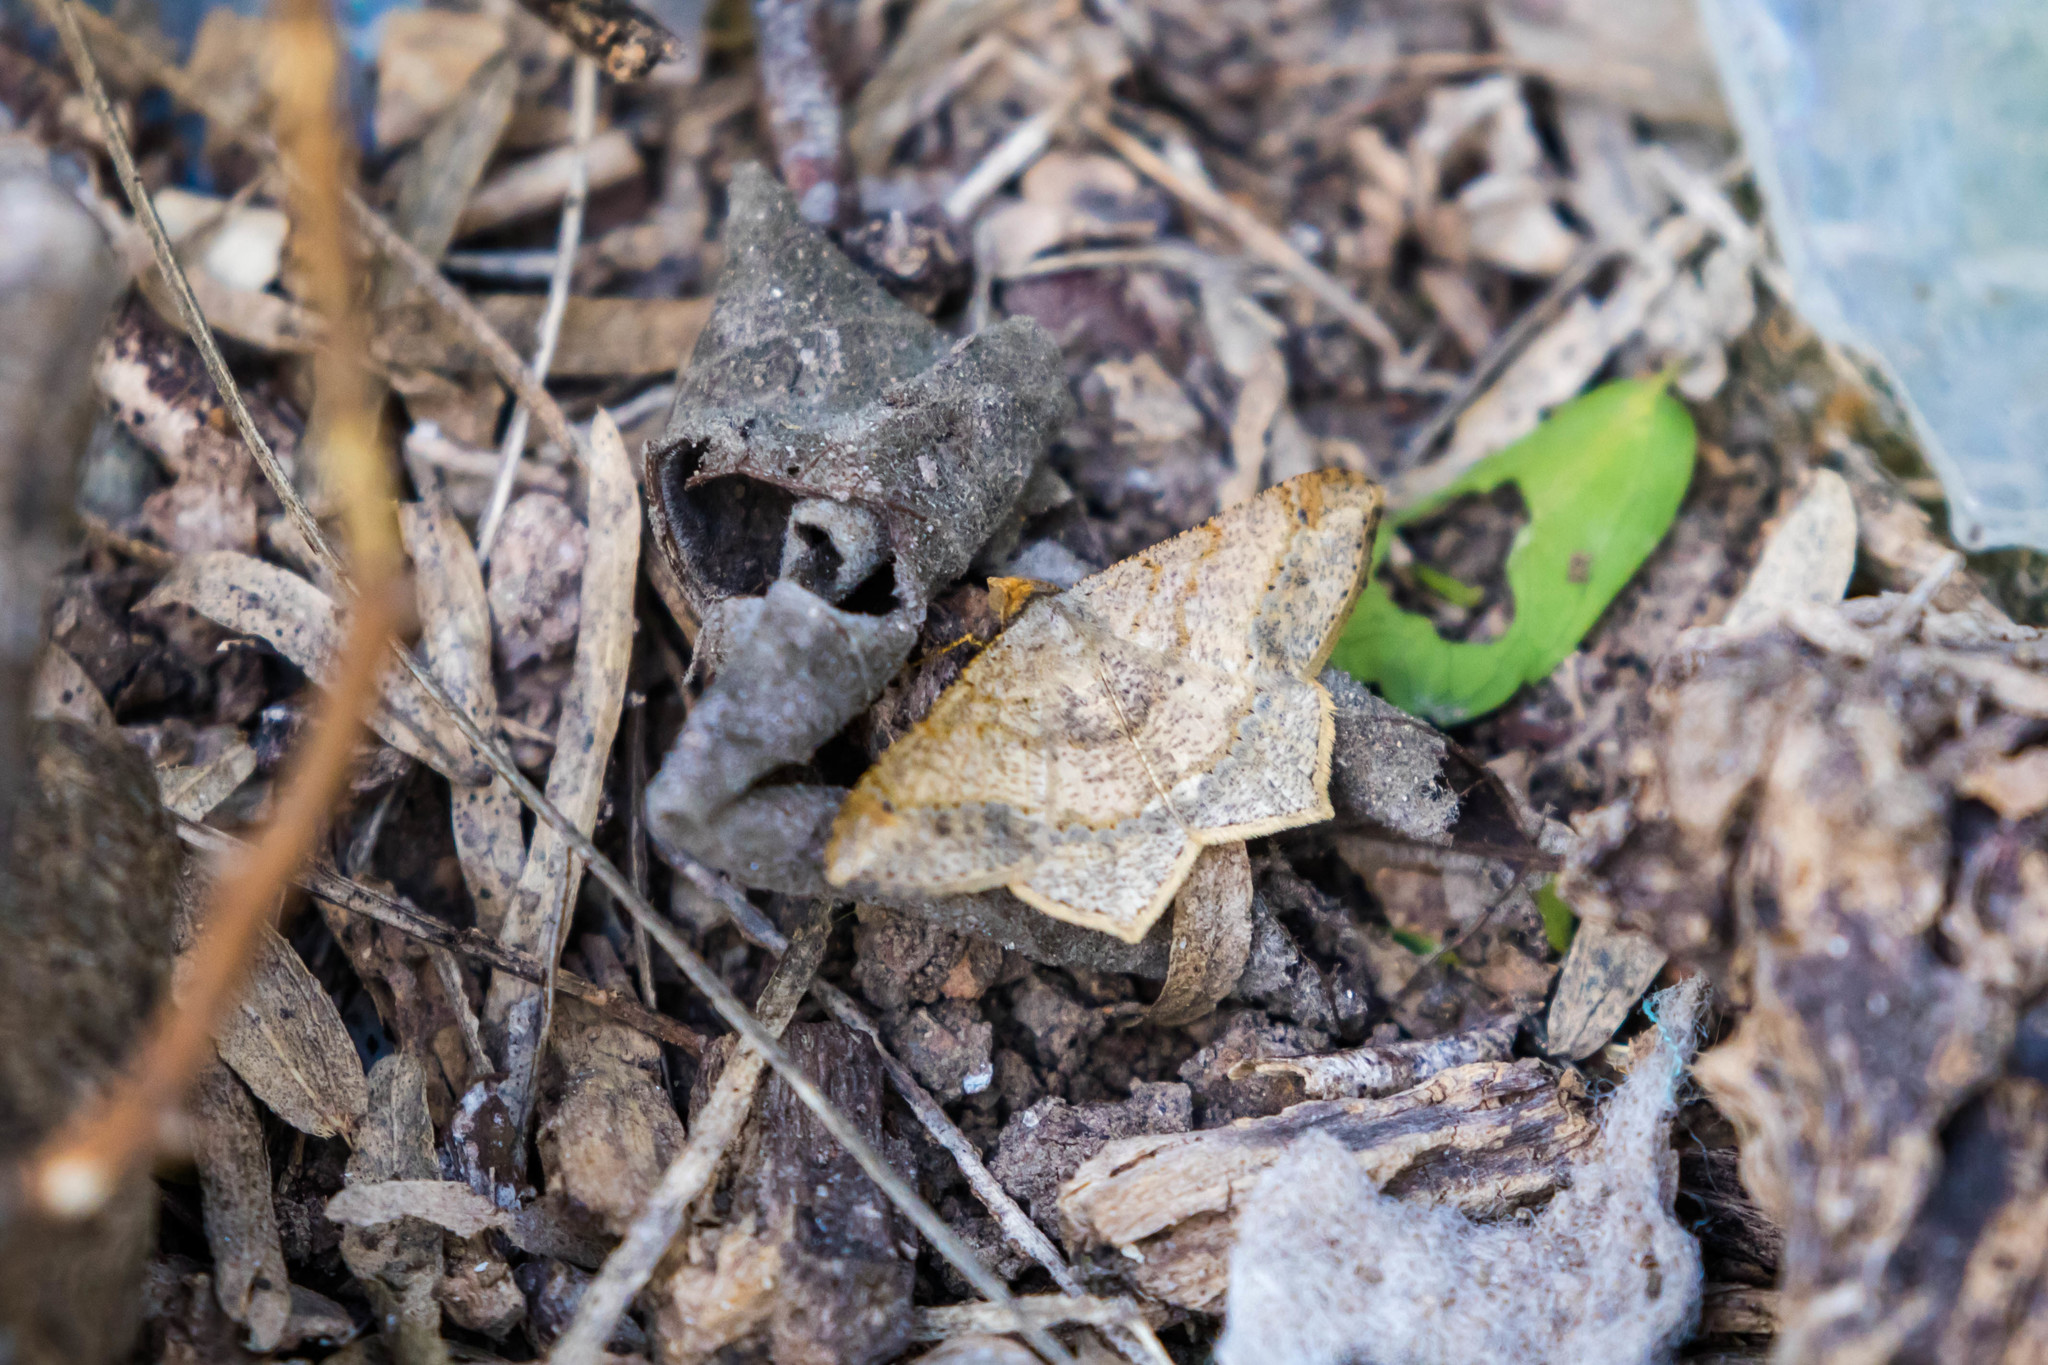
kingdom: Animalia
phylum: Arthropoda
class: Insecta
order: Lepidoptera
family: Geometridae
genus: Macaria
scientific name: Macaria abydata
